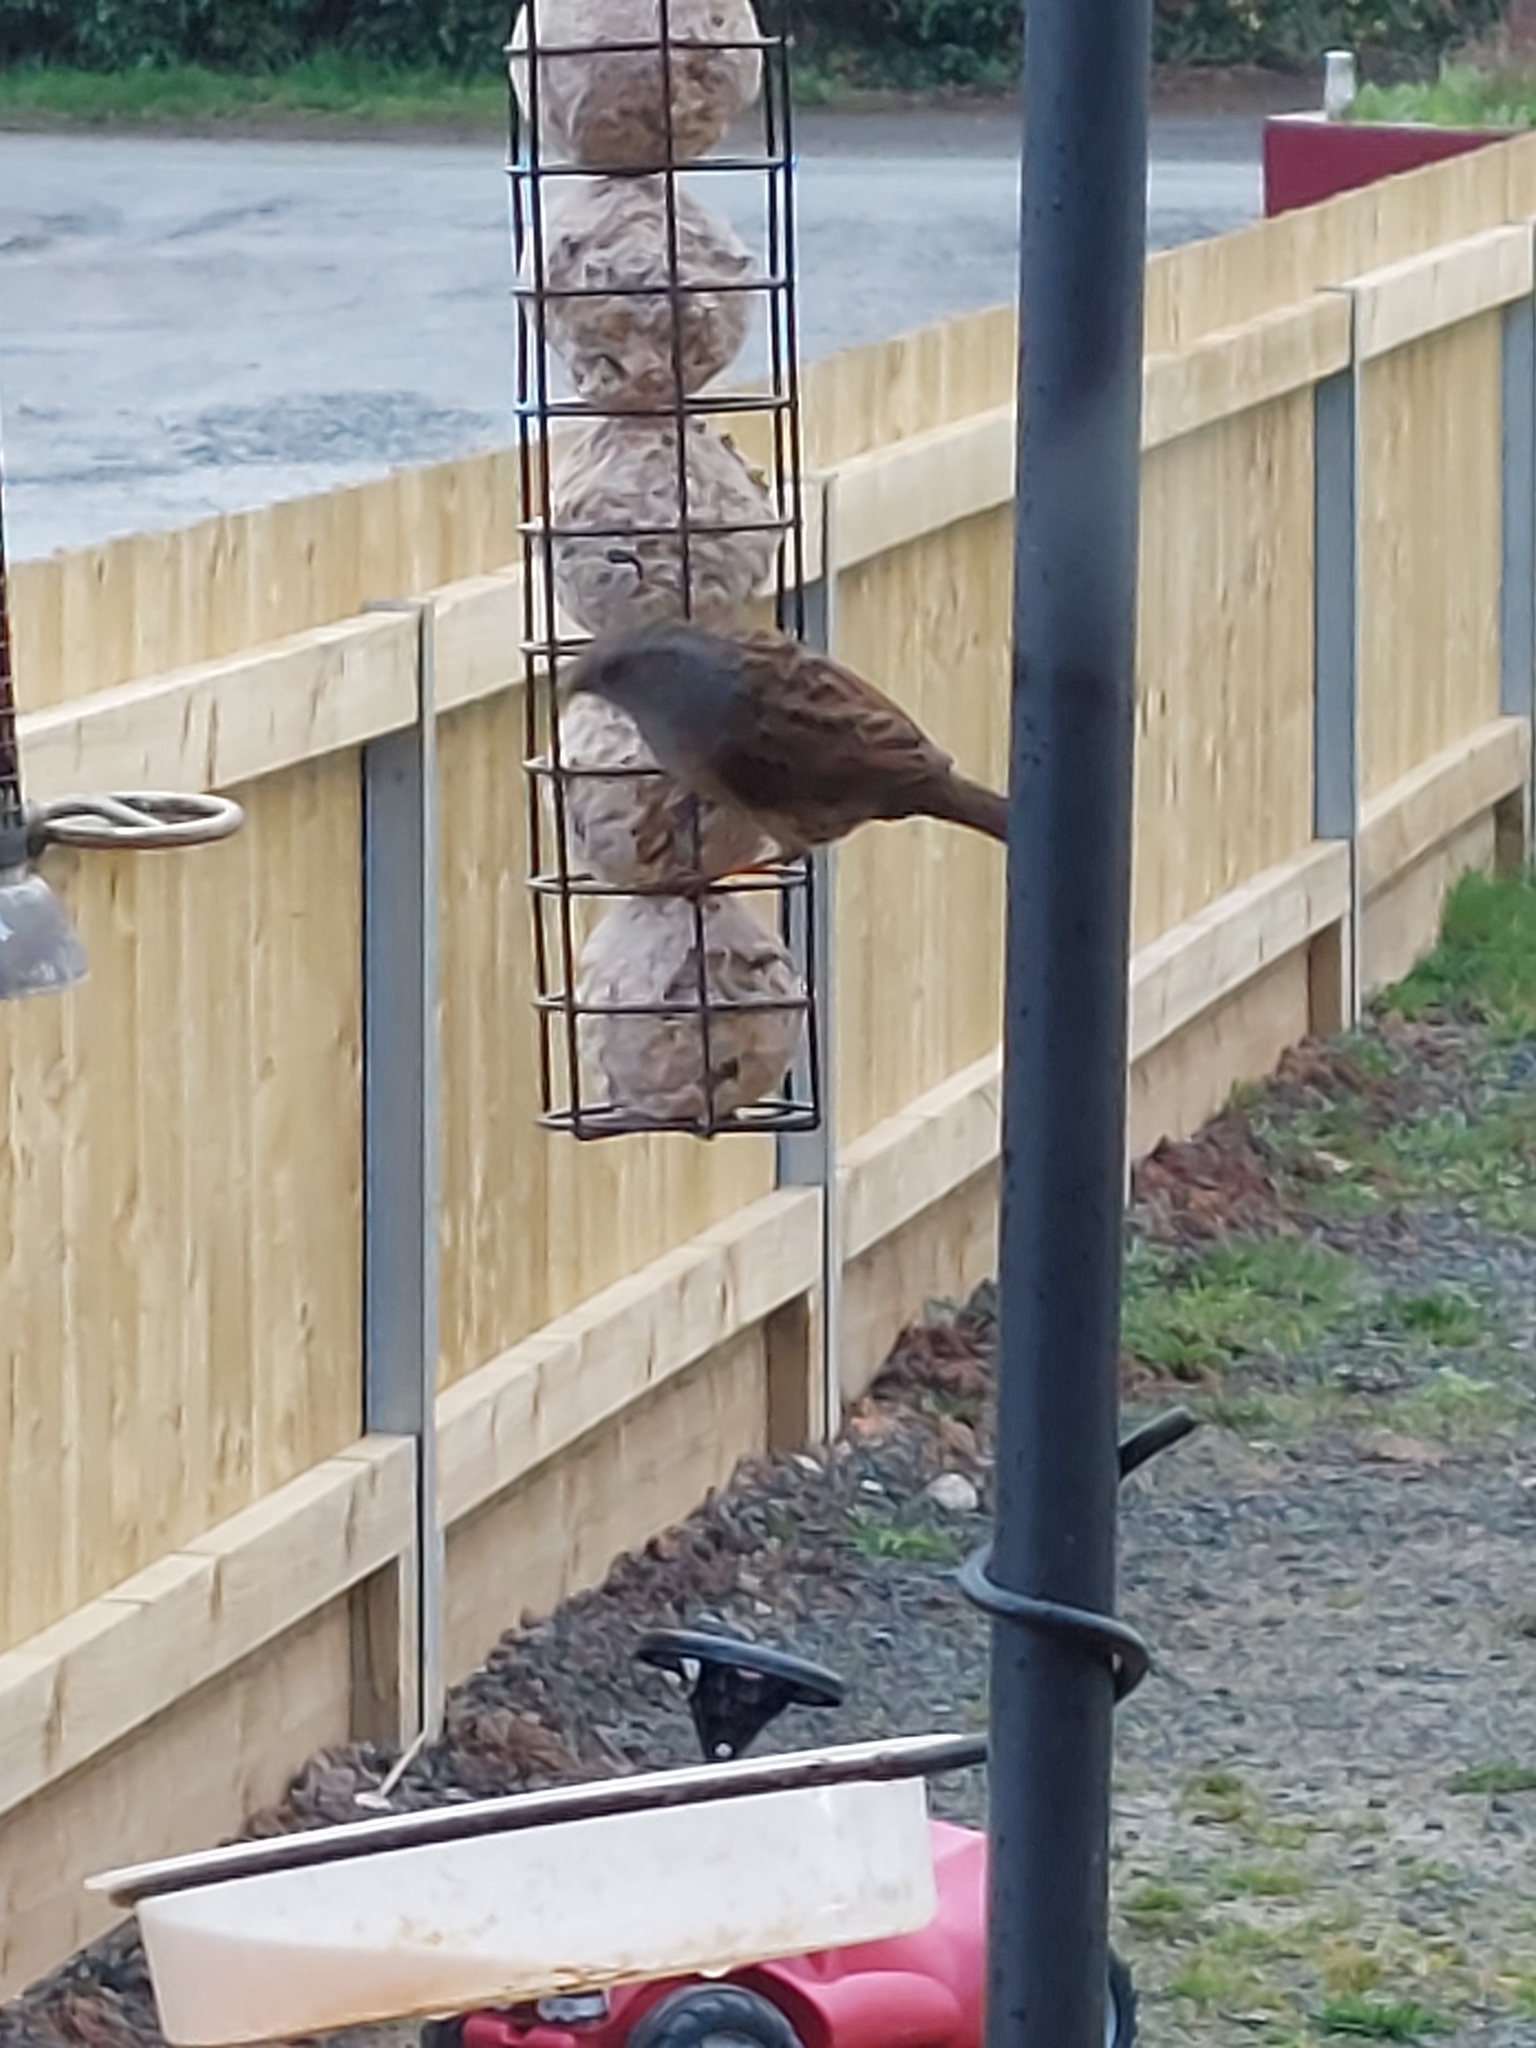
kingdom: Animalia
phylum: Chordata
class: Aves
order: Passeriformes
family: Prunellidae
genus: Prunella
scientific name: Prunella modularis
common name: Dunnock
